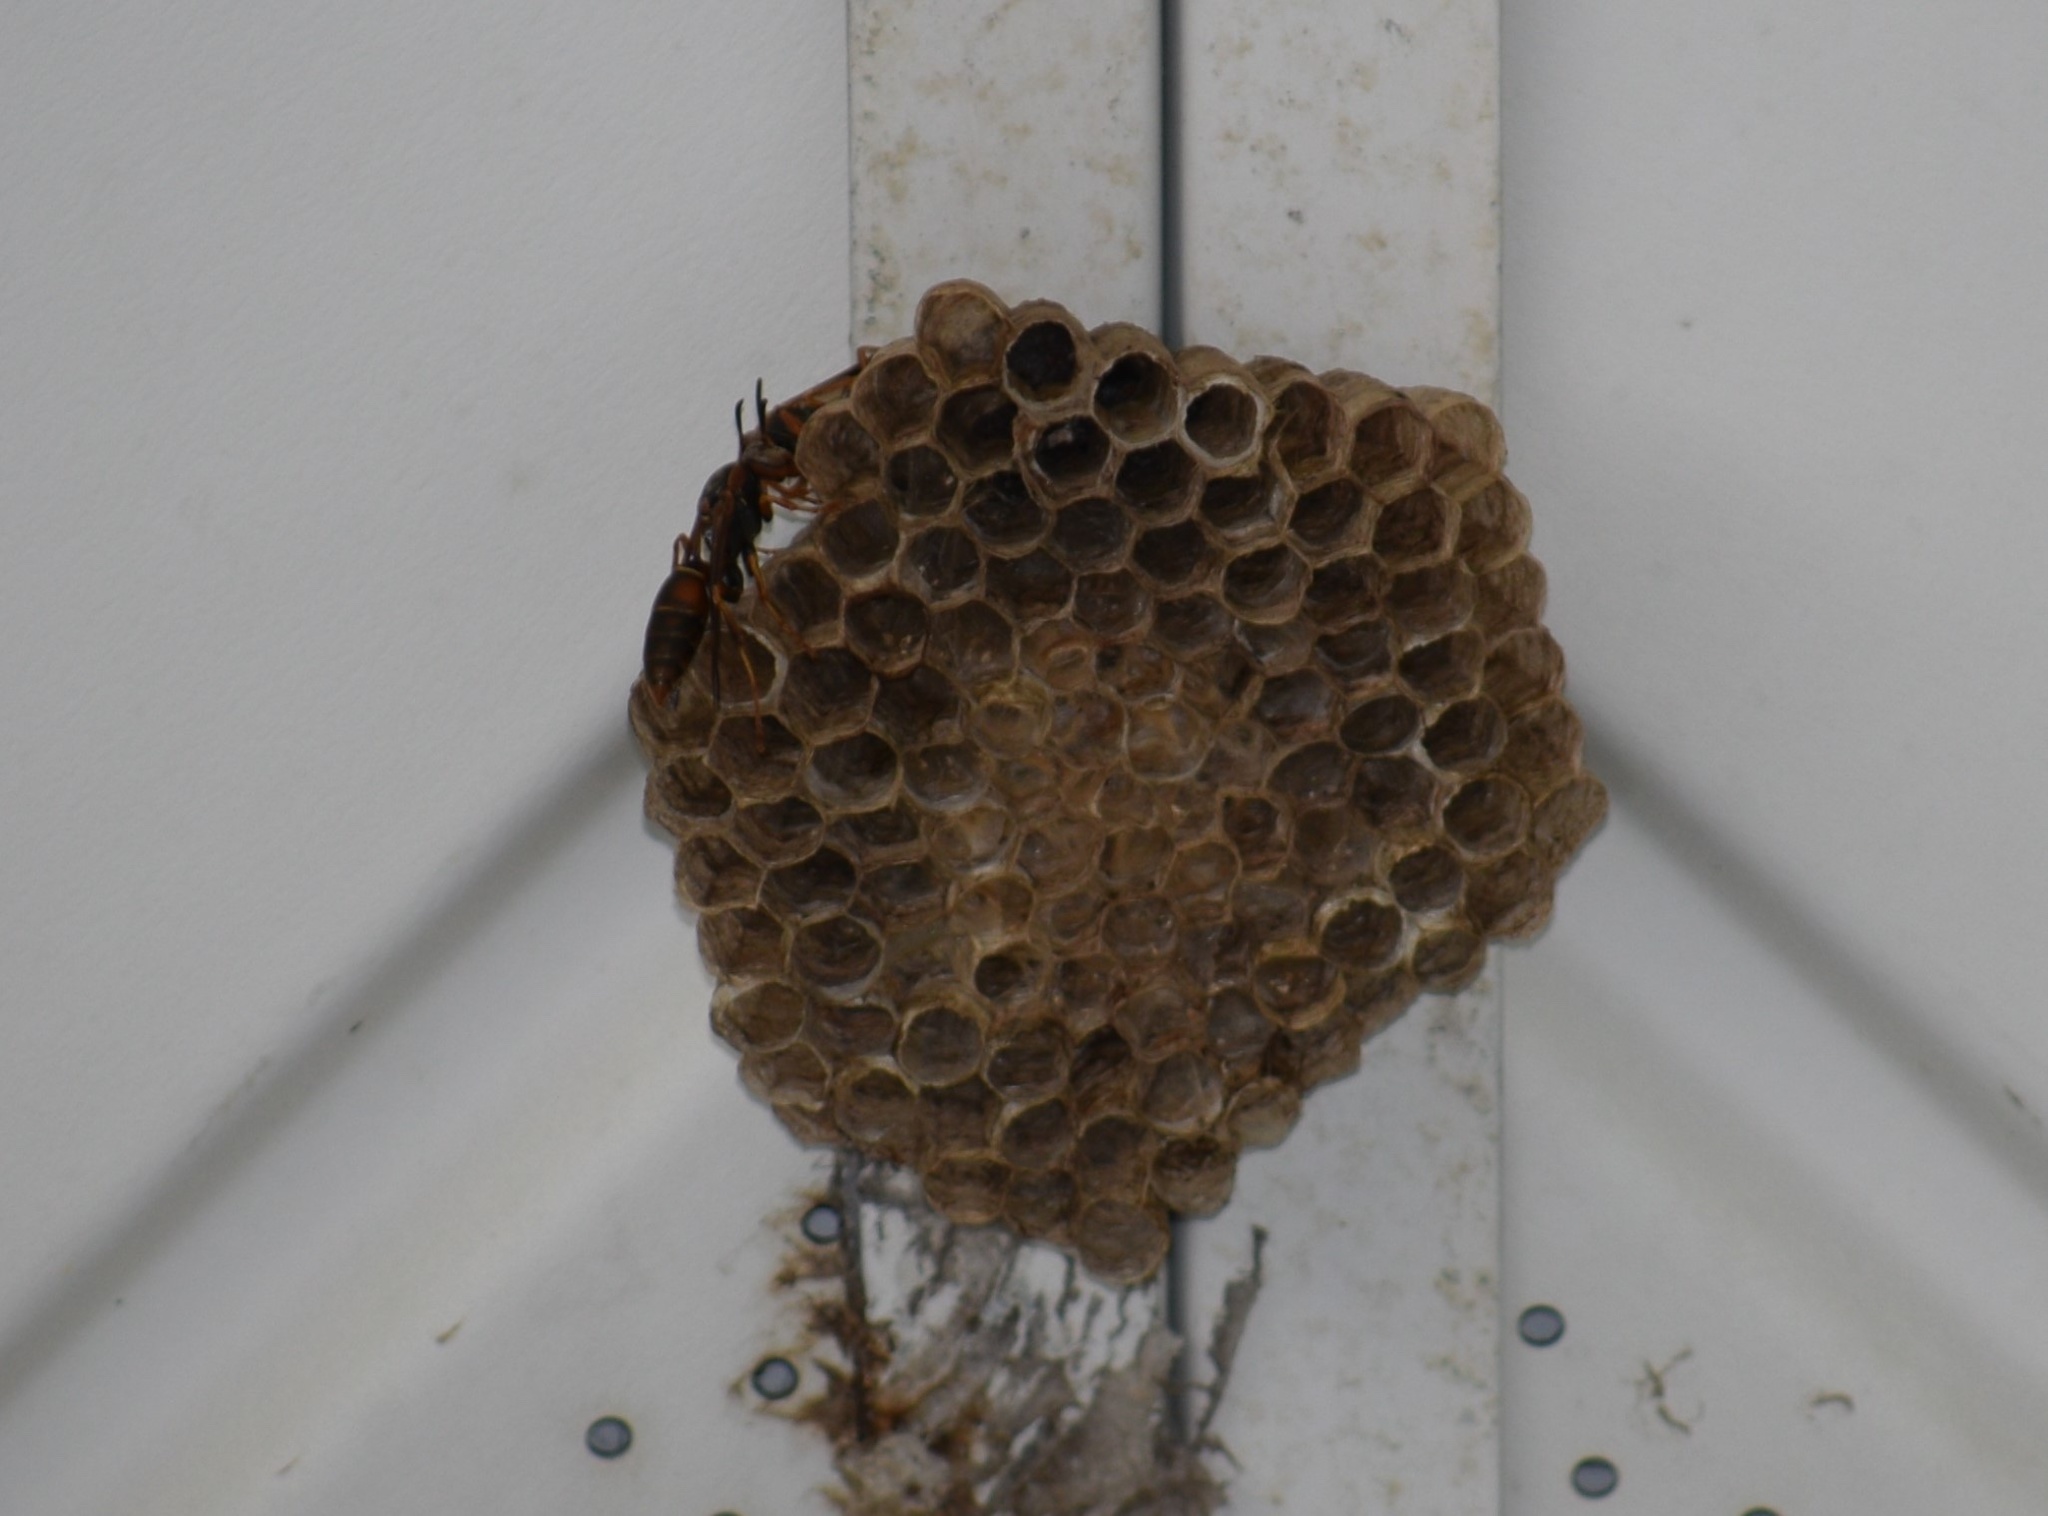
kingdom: Animalia
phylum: Arthropoda
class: Insecta
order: Hymenoptera
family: Eumenidae
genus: Polistes
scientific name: Polistes fuscatus
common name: Dark paper wasp
